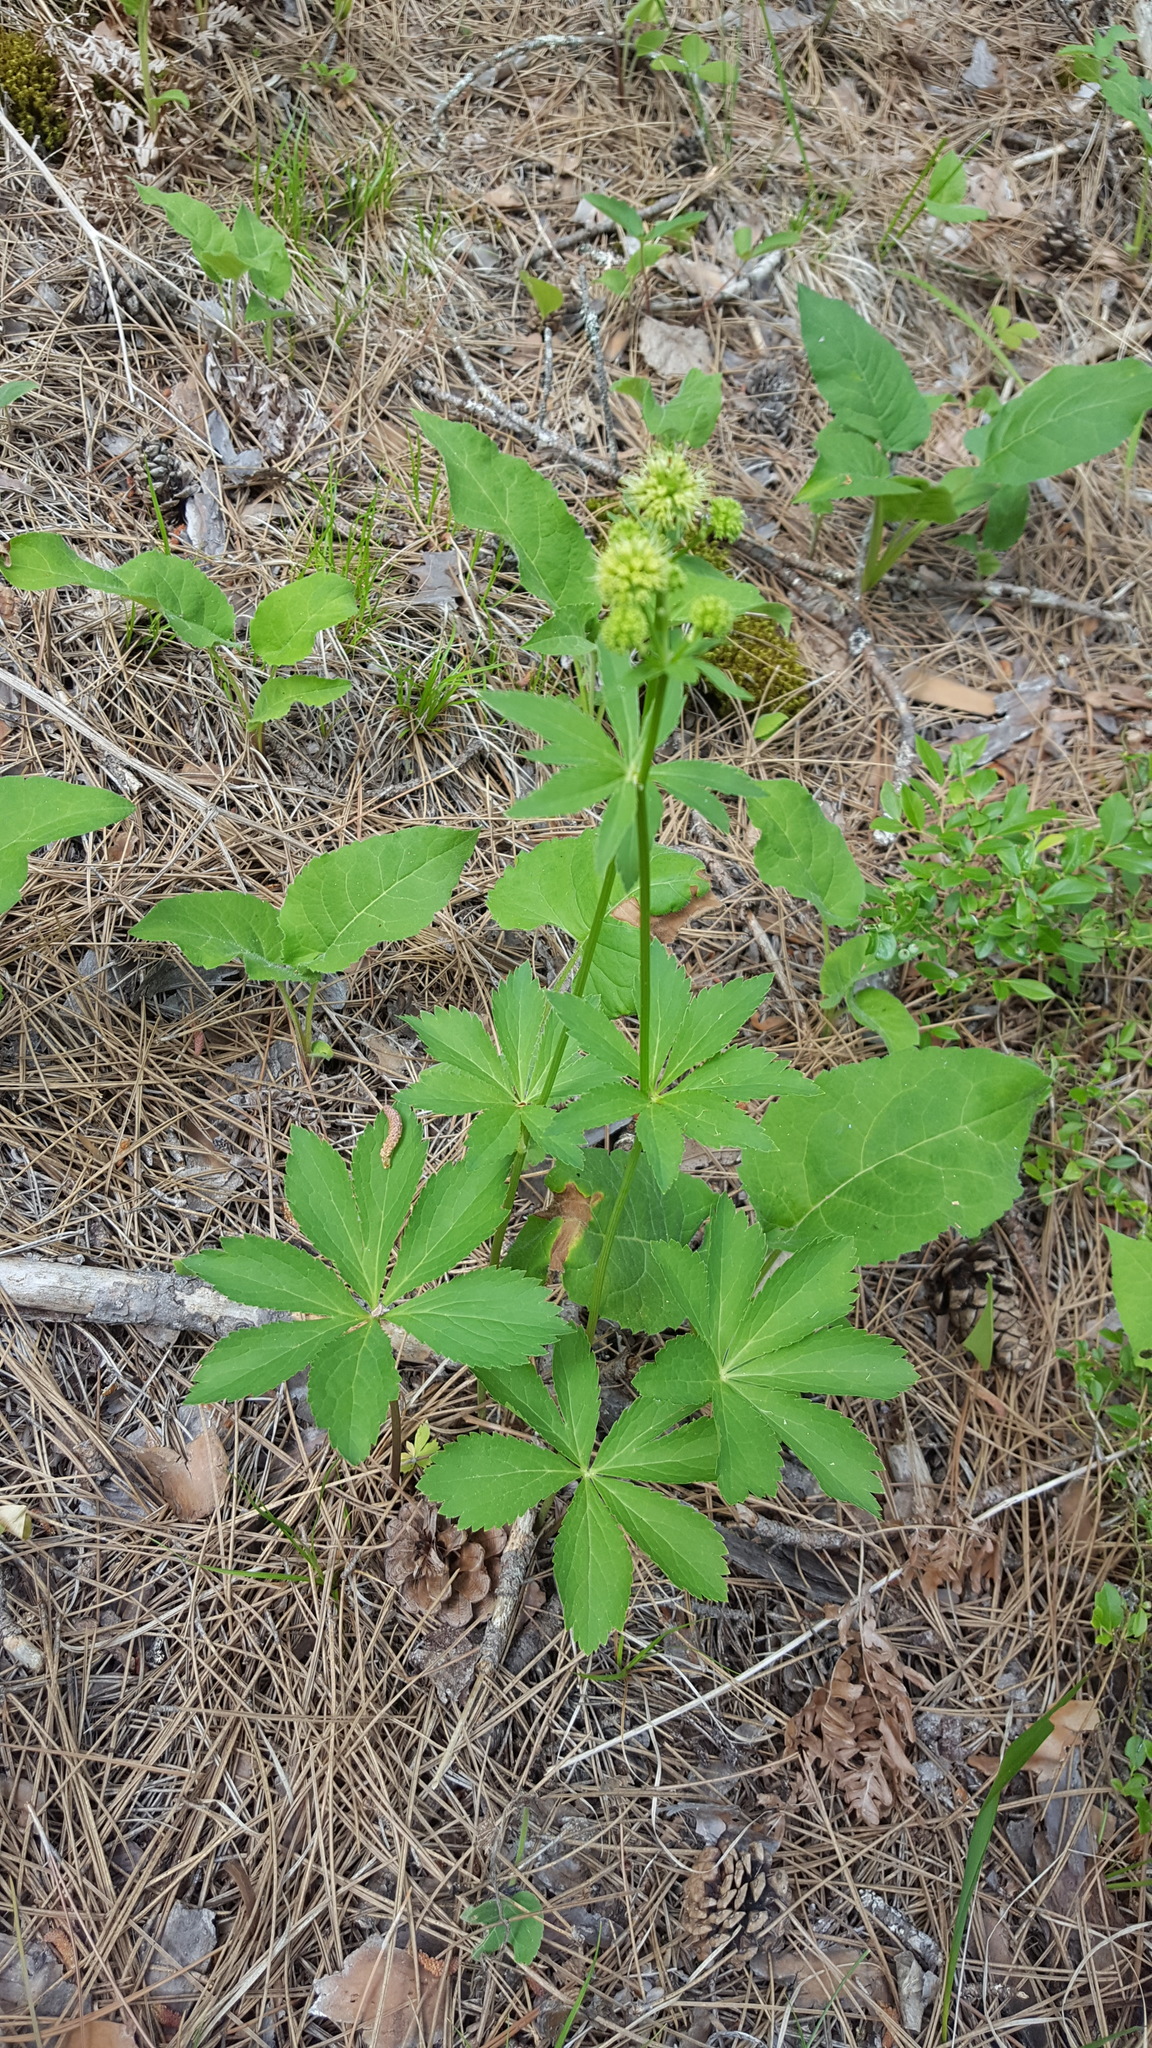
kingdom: Plantae
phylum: Tracheophyta
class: Magnoliopsida
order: Apiales
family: Apiaceae
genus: Sanicula
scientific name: Sanicula marilandica
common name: Black snakeroot
